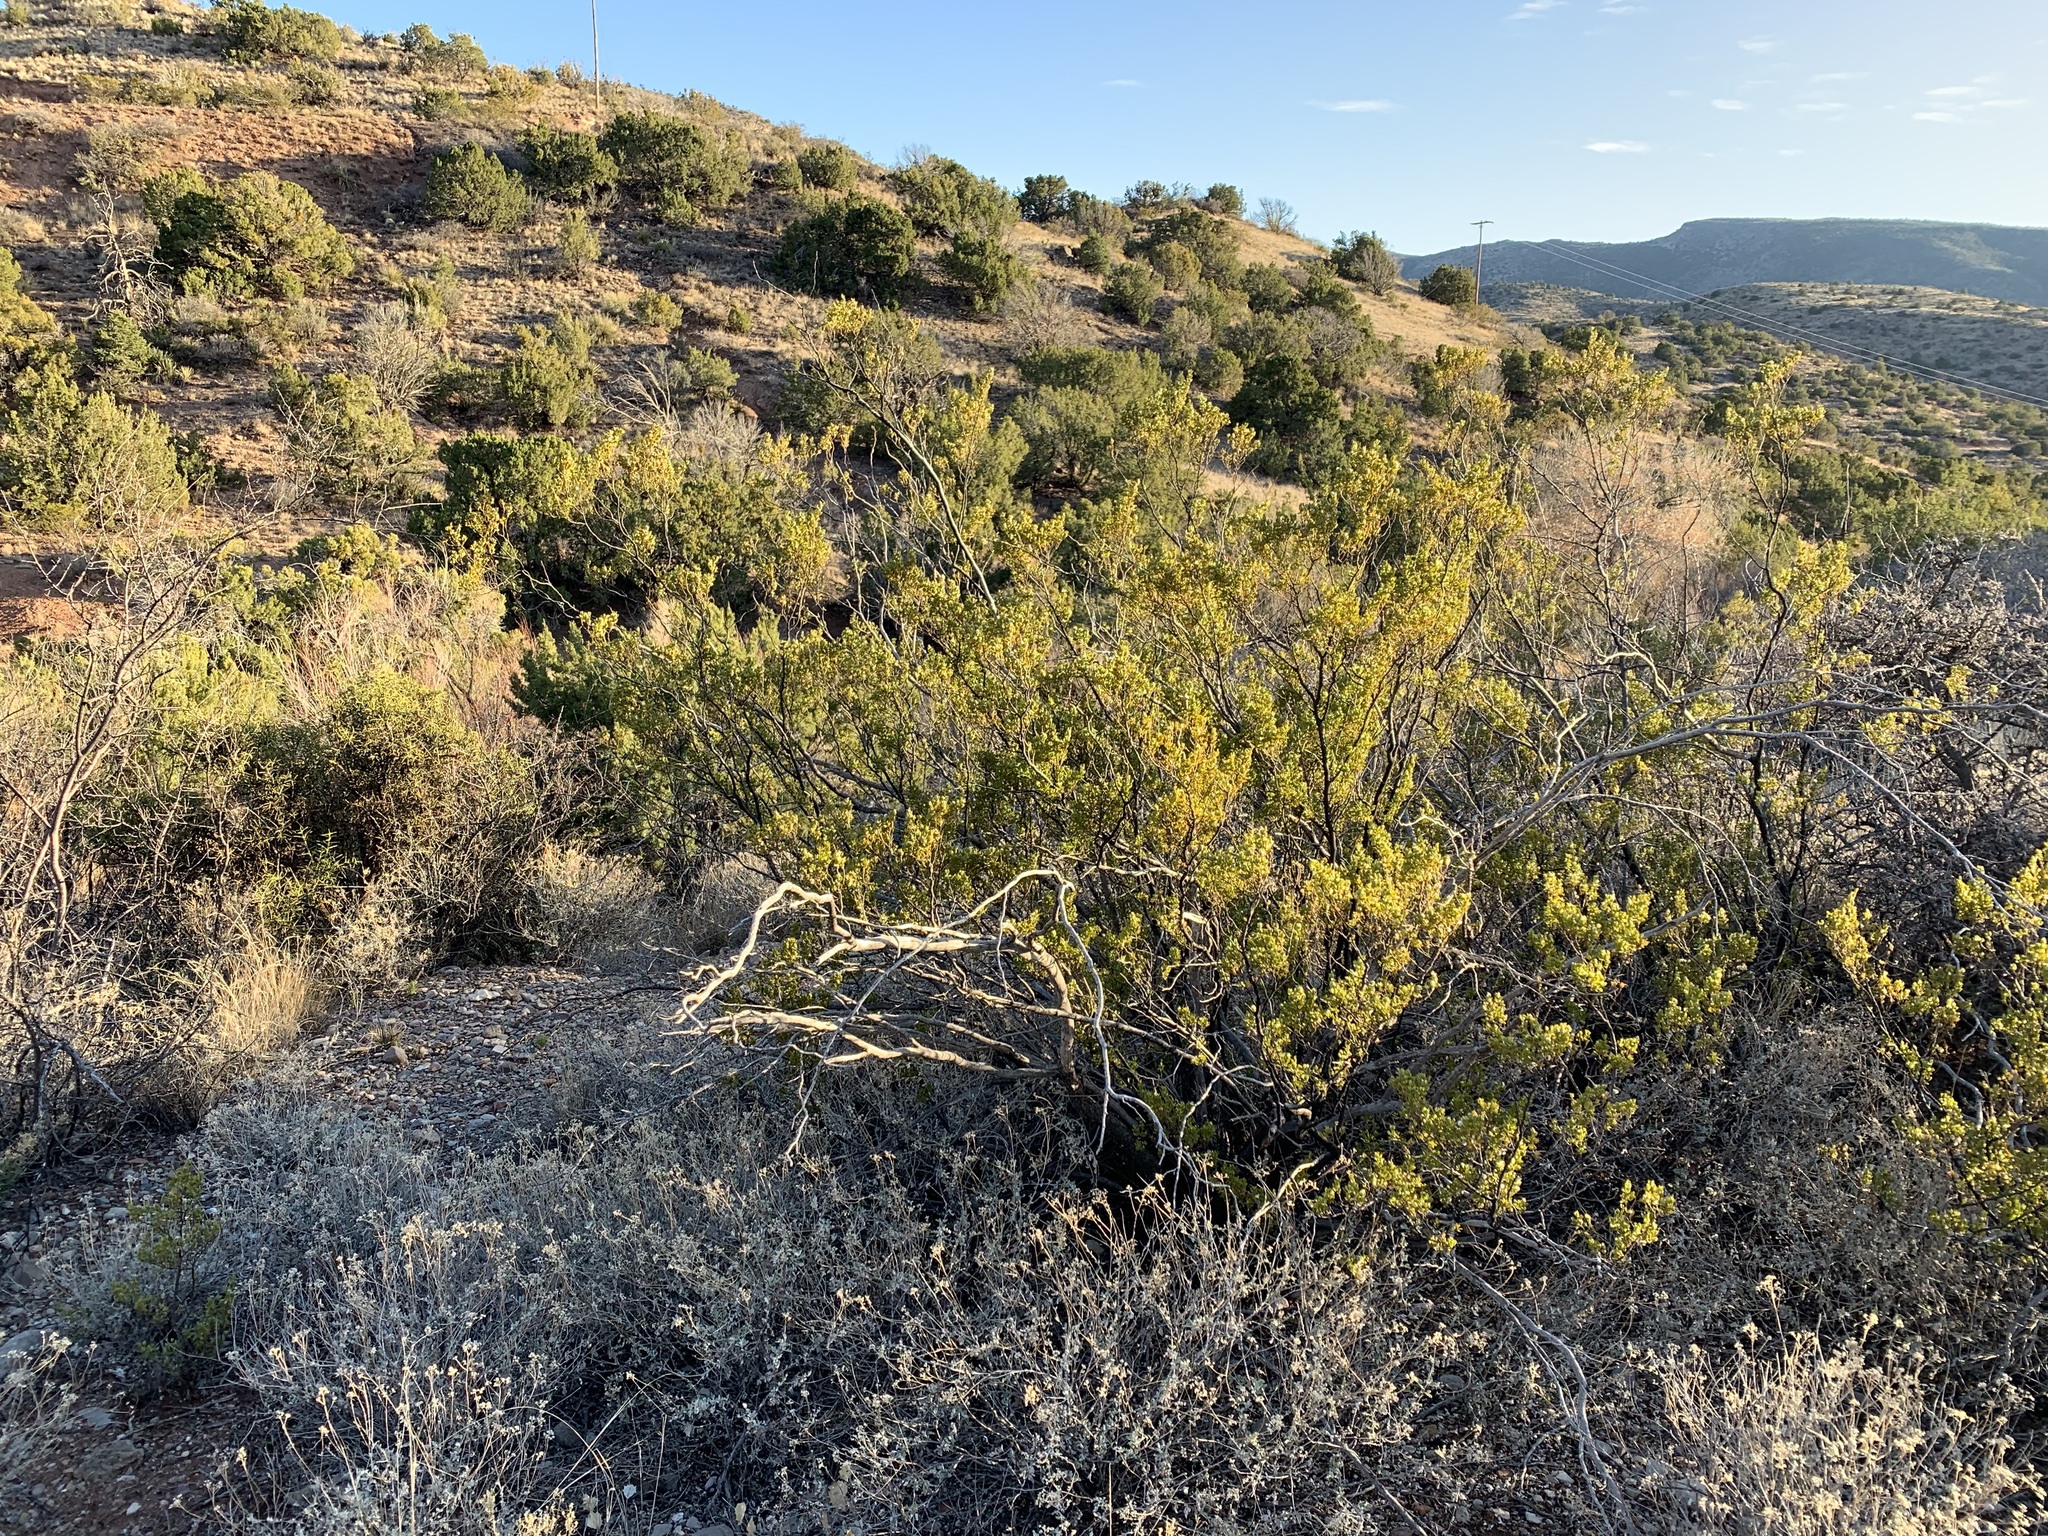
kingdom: Plantae
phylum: Tracheophyta
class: Magnoliopsida
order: Zygophyllales
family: Zygophyllaceae
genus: Larrea
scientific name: Larrea tridentata
